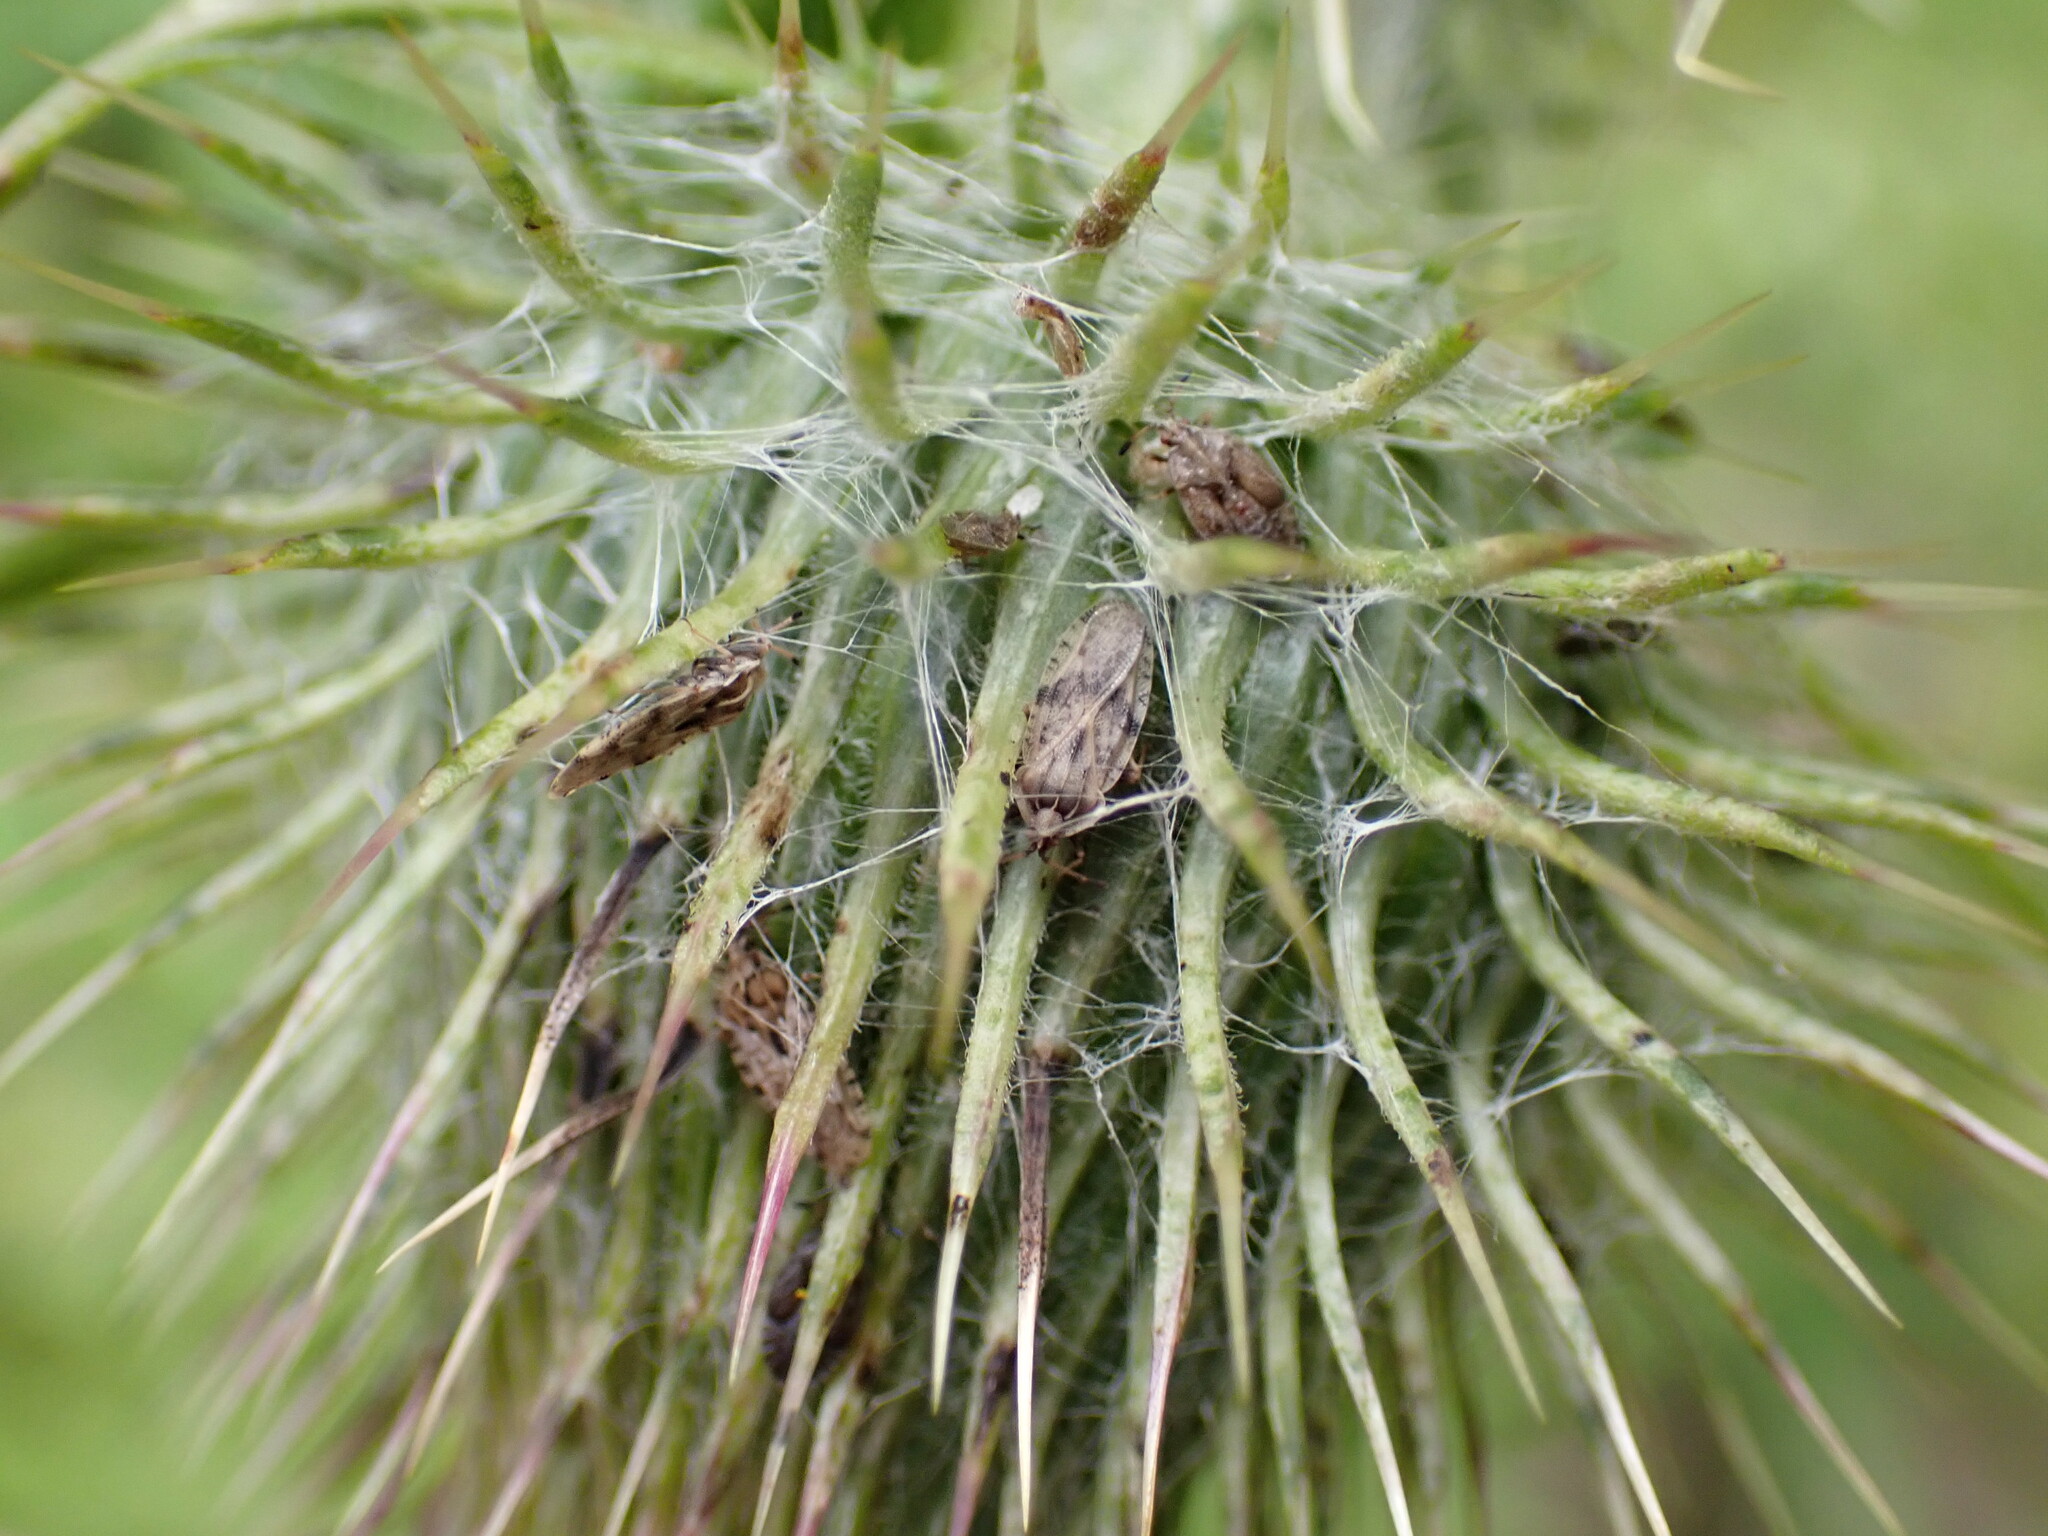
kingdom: Animalia
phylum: Arthropoda
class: Insecta
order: Hemiptera
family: Tingidae
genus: Tingis
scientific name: Tingis cardui
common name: Spear thistle lacebug
